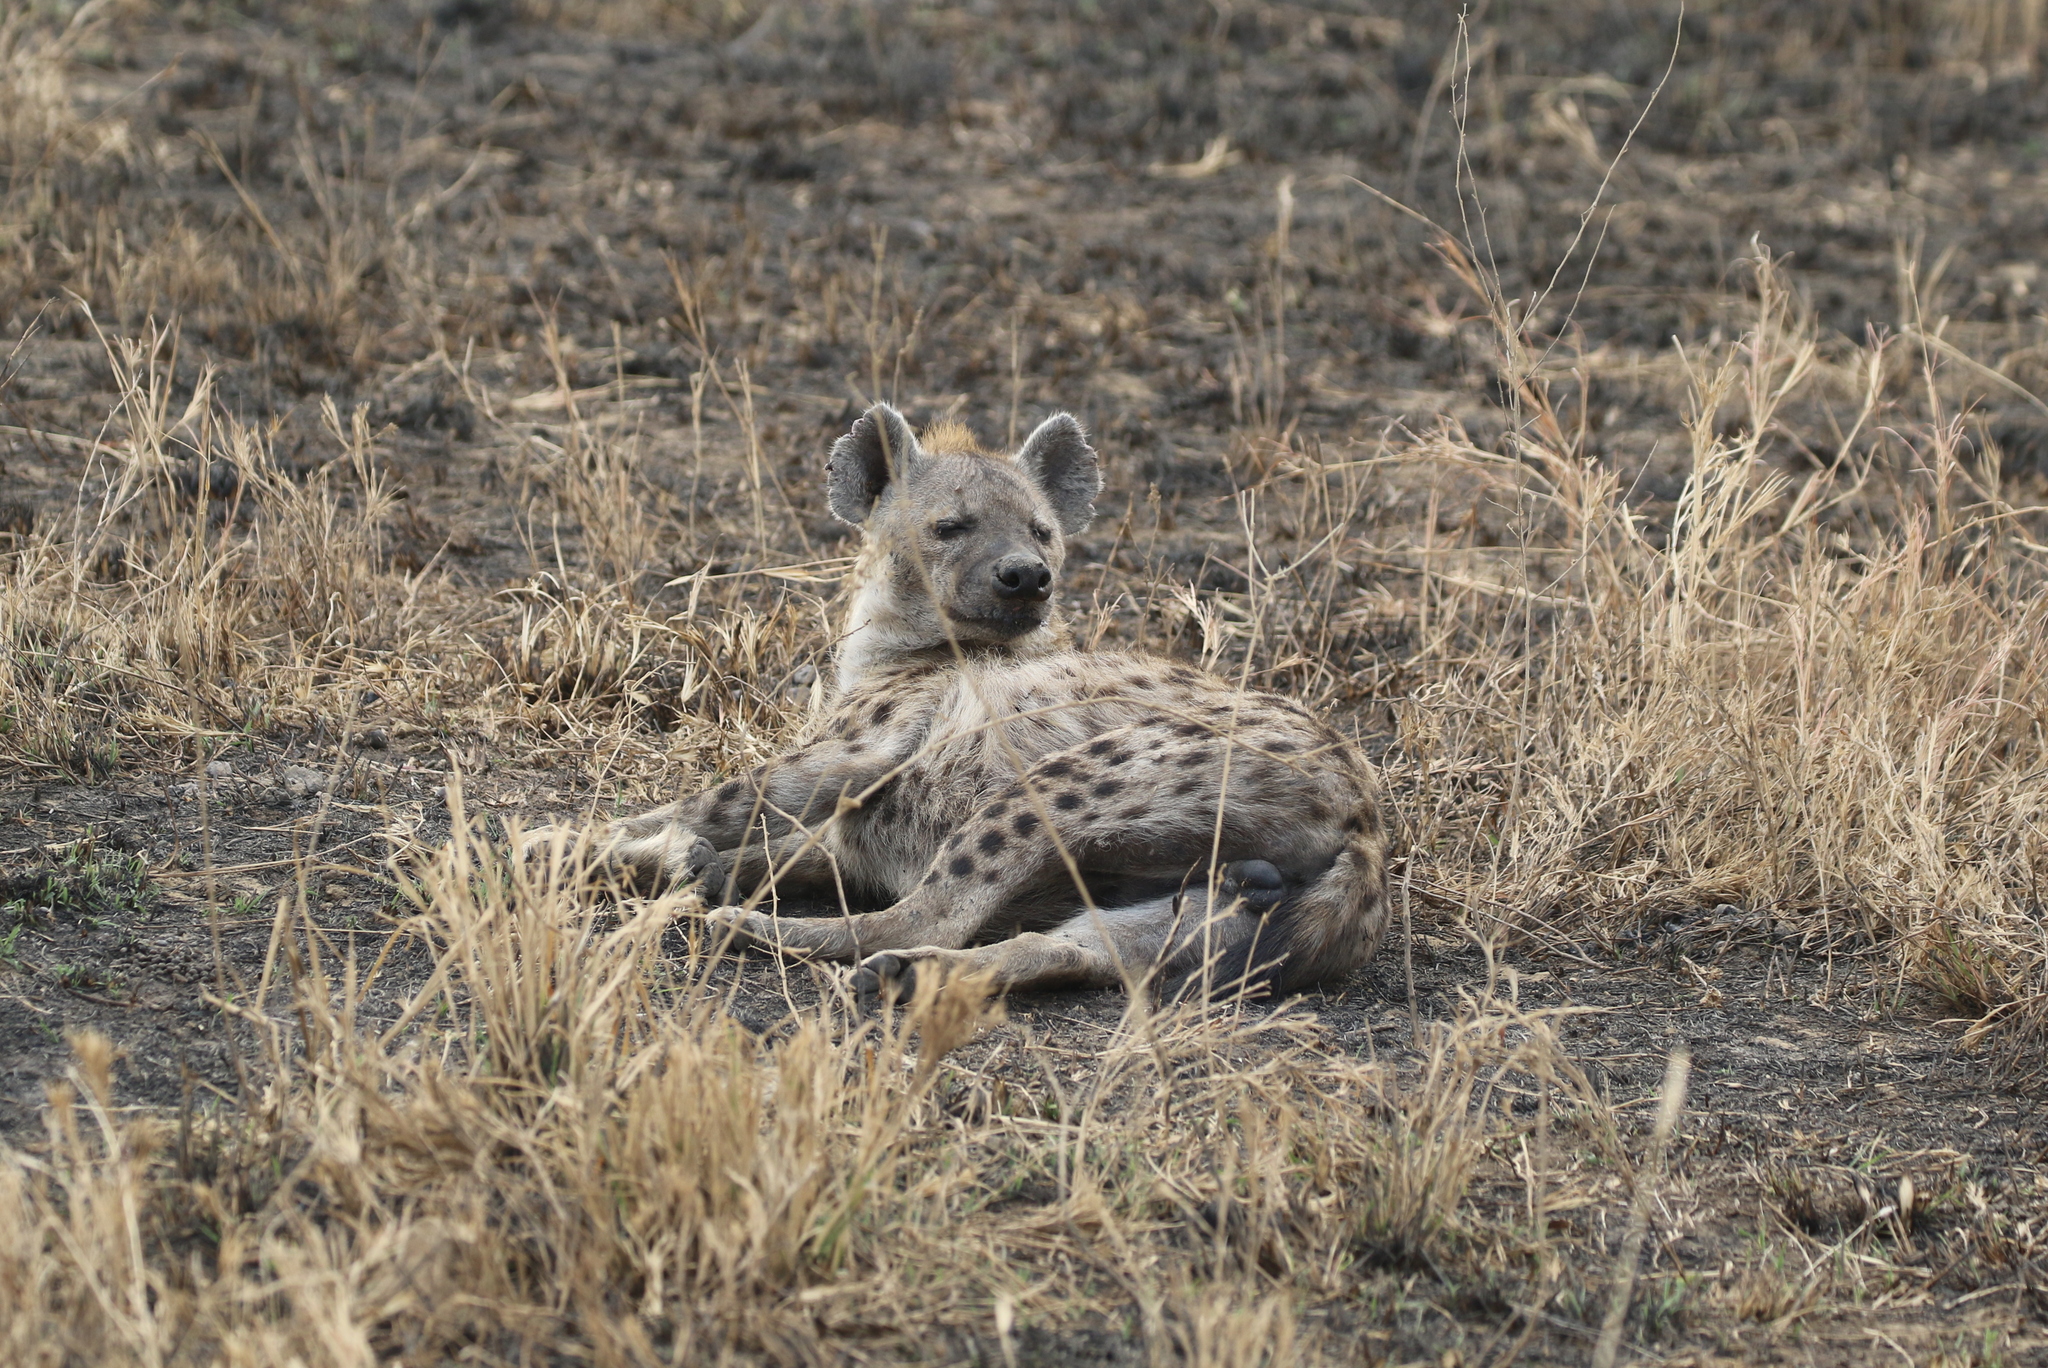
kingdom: Animalia
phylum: Chordata
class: Mammalia
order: Carnivora
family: Hyaenidae
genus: Crocuta
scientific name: Crocuta crocuta
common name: Spotted hyaena
